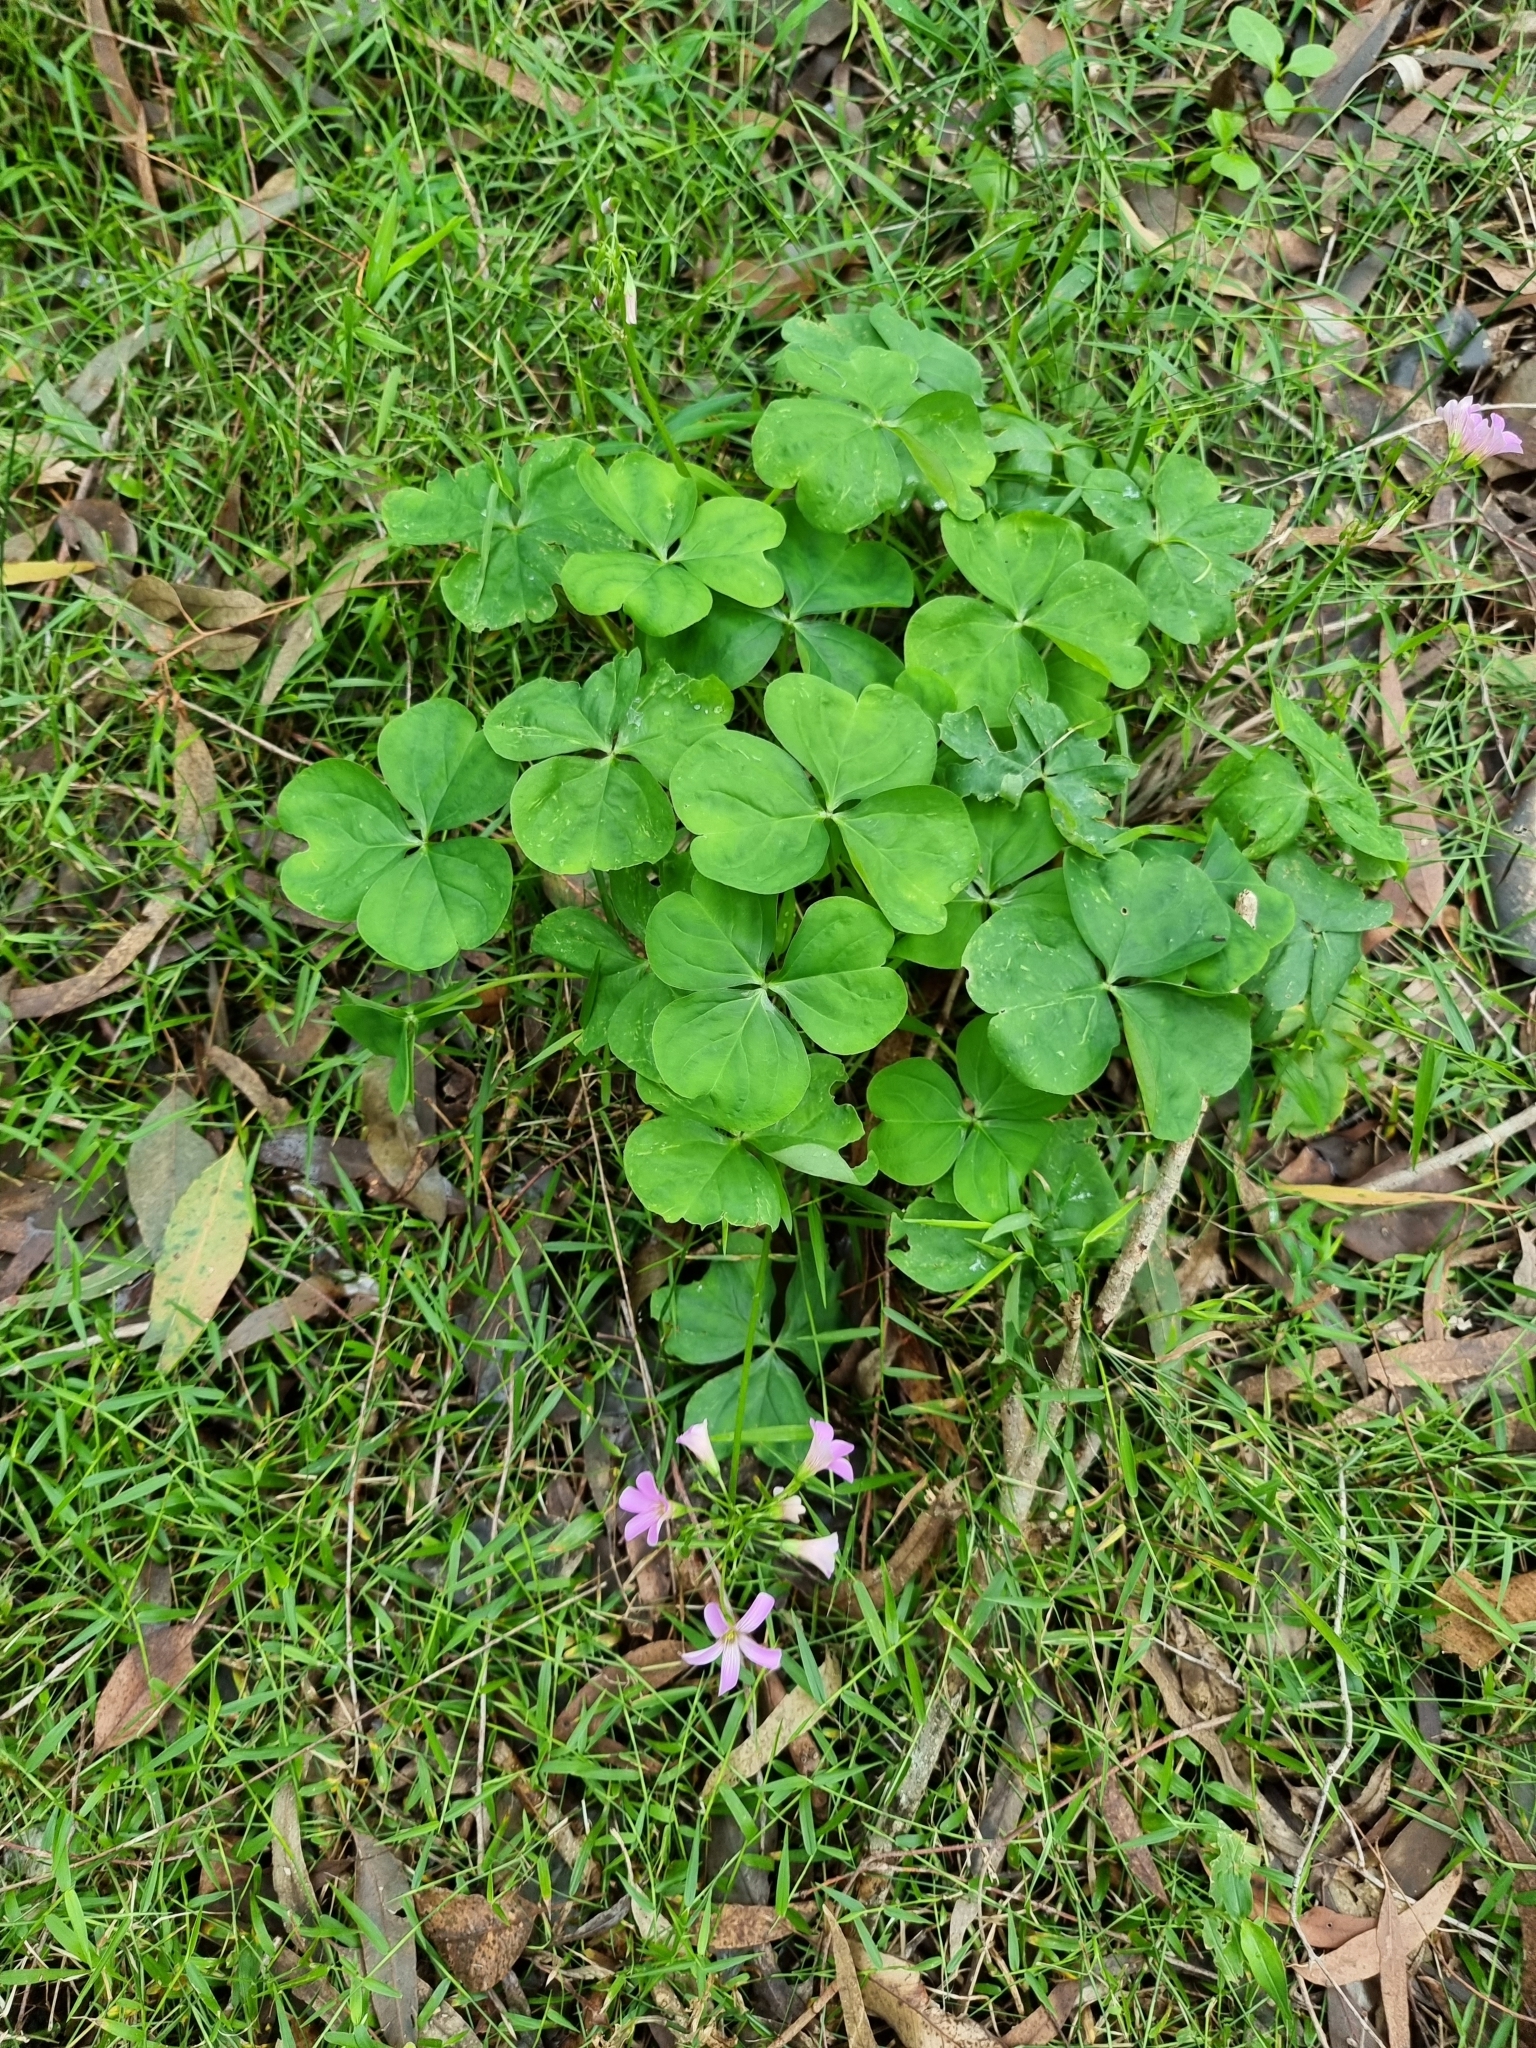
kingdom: Plantae
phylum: Tracheophyta
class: Magnoliopsida
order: Oxalidales
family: Oxalidaceae
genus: Oxalis
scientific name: Oxalis debilis
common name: Large-flowered pink-sorrel
